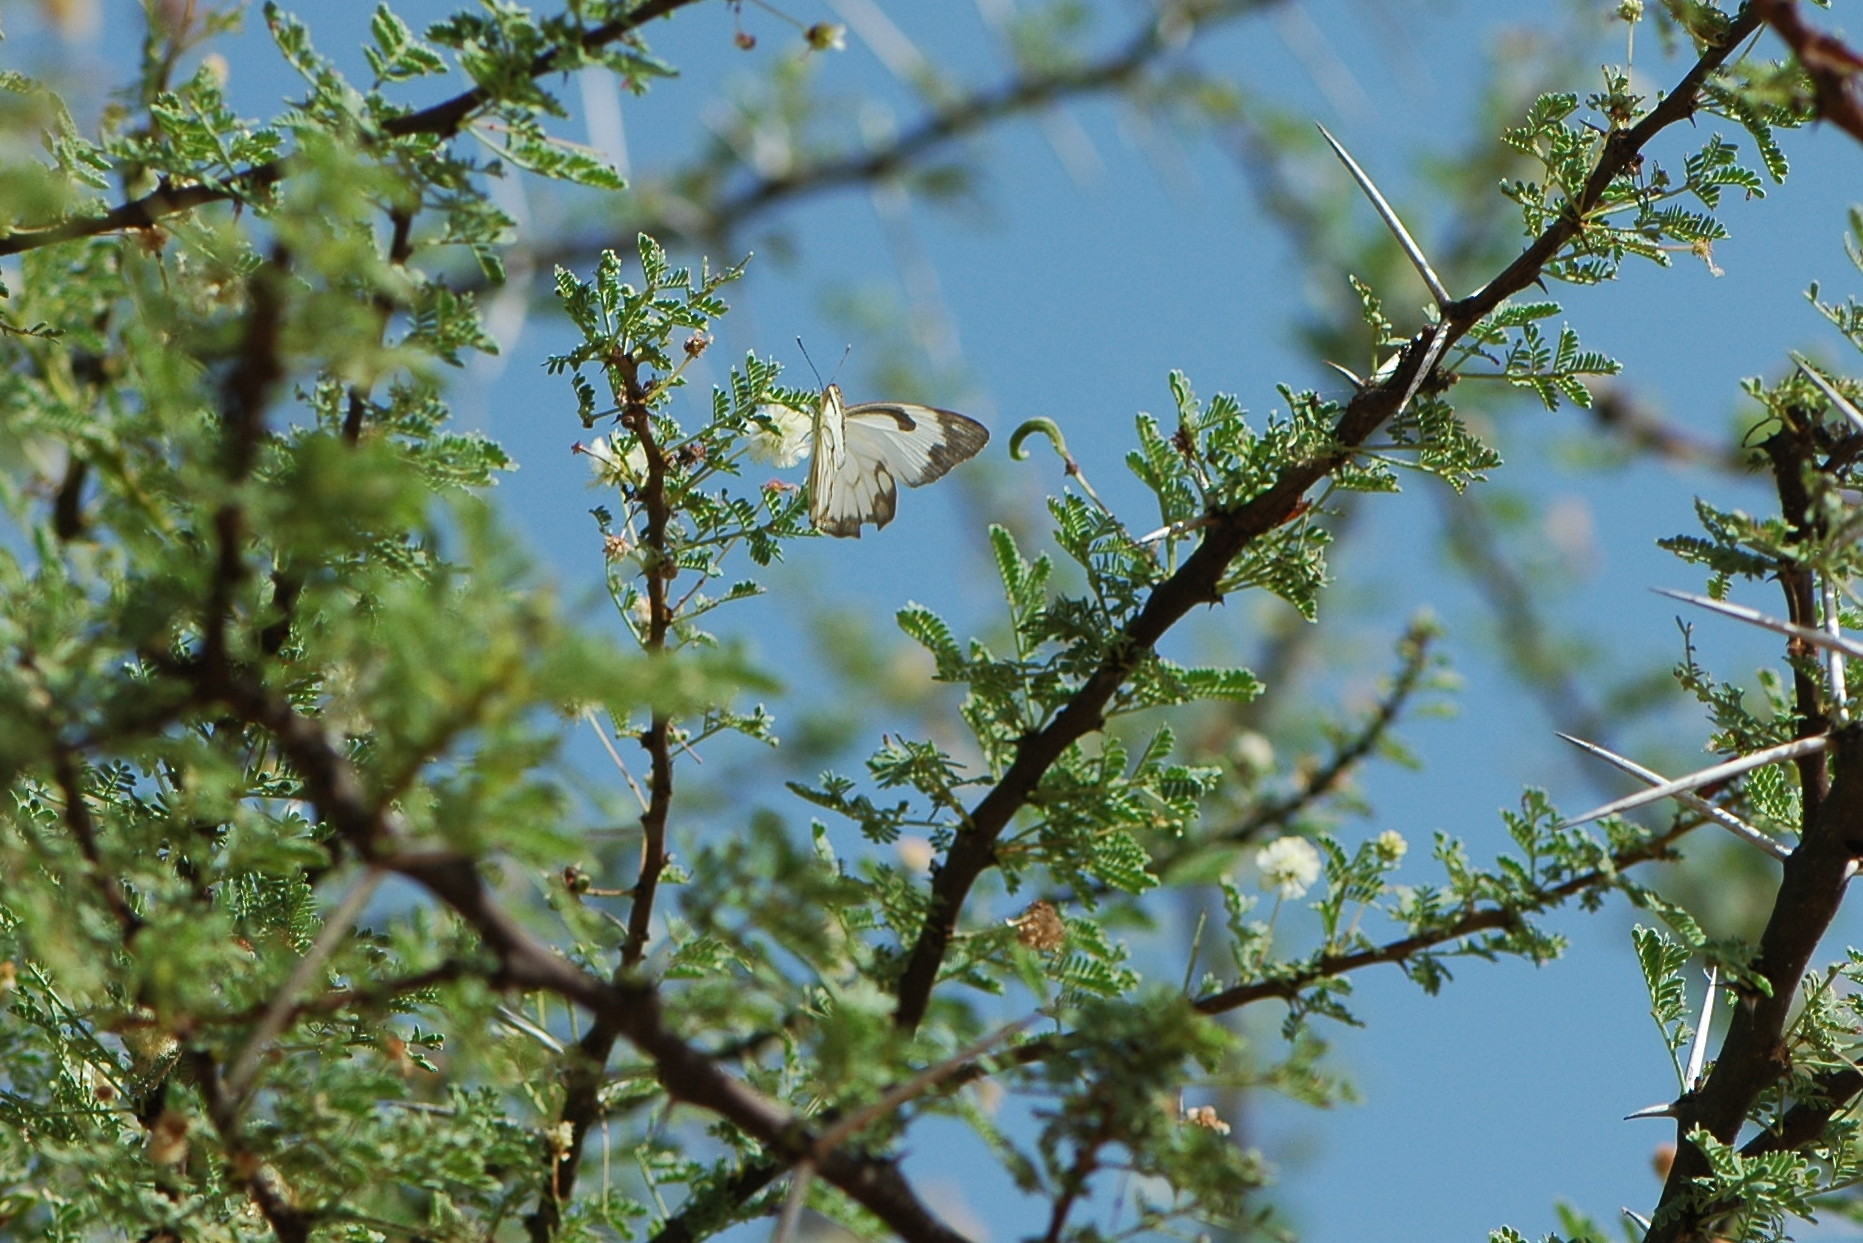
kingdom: Animalia
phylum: Arthropoda
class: Insecta
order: Lepidoptera
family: Pieridae
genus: Belenois
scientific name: Belenois aurota
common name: Brown-veined white
